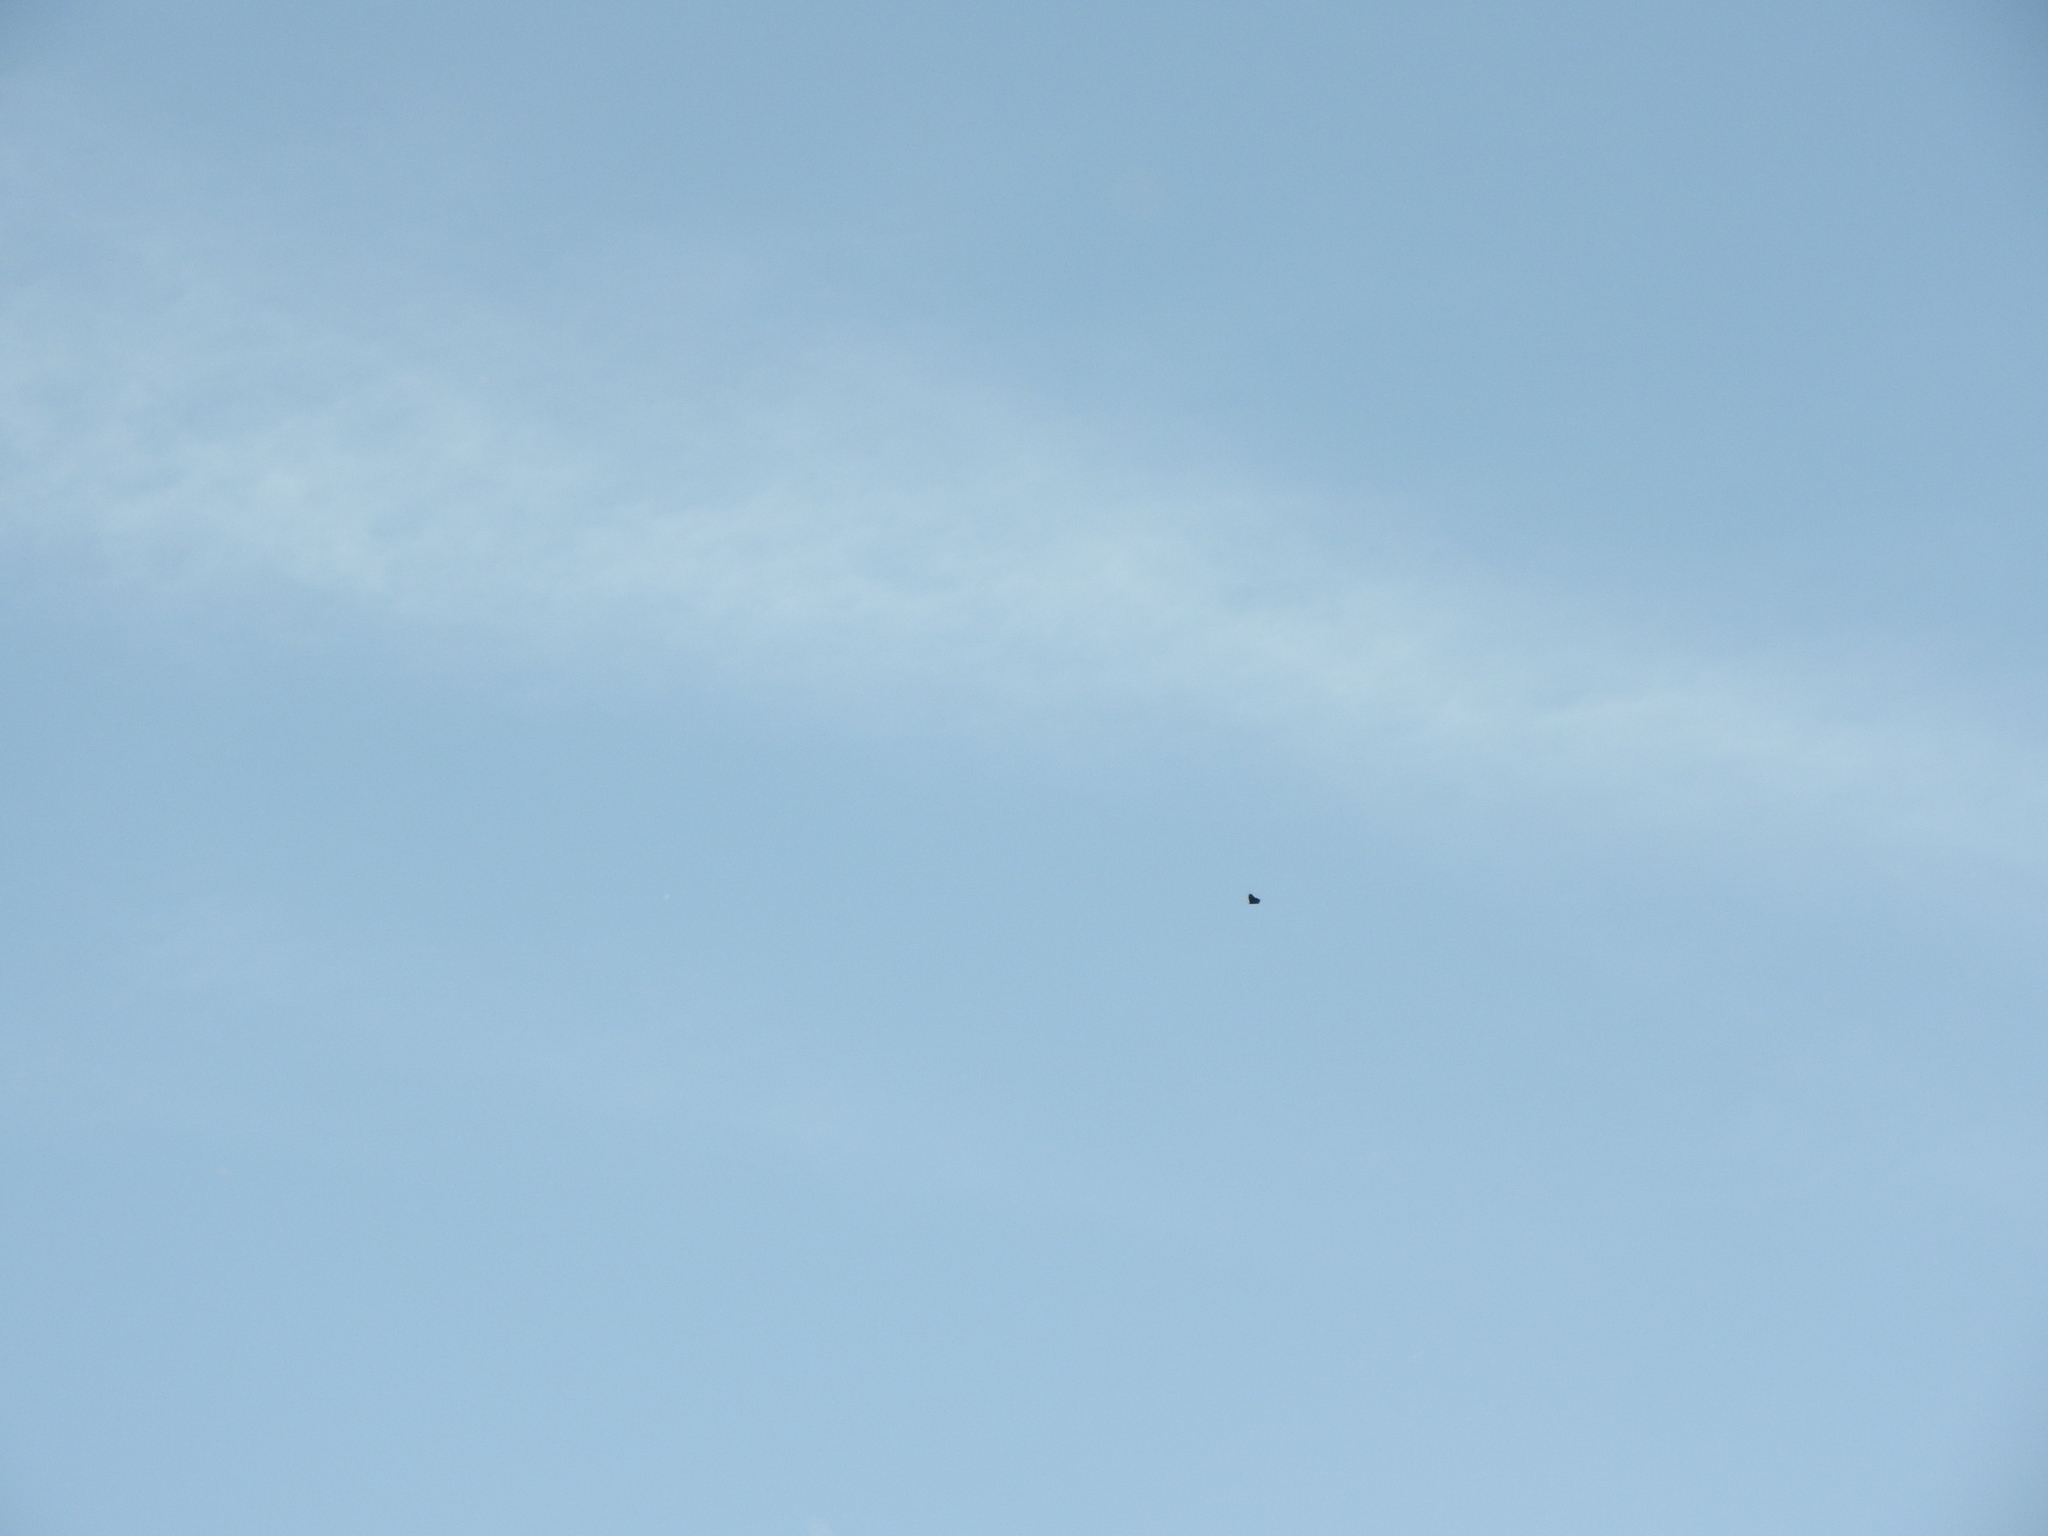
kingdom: Animalia
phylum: Arthropoda
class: Insecta
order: Lepidoptera
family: Nymphalidae
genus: Danaus
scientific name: Danaus plexippus
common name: Monarch
